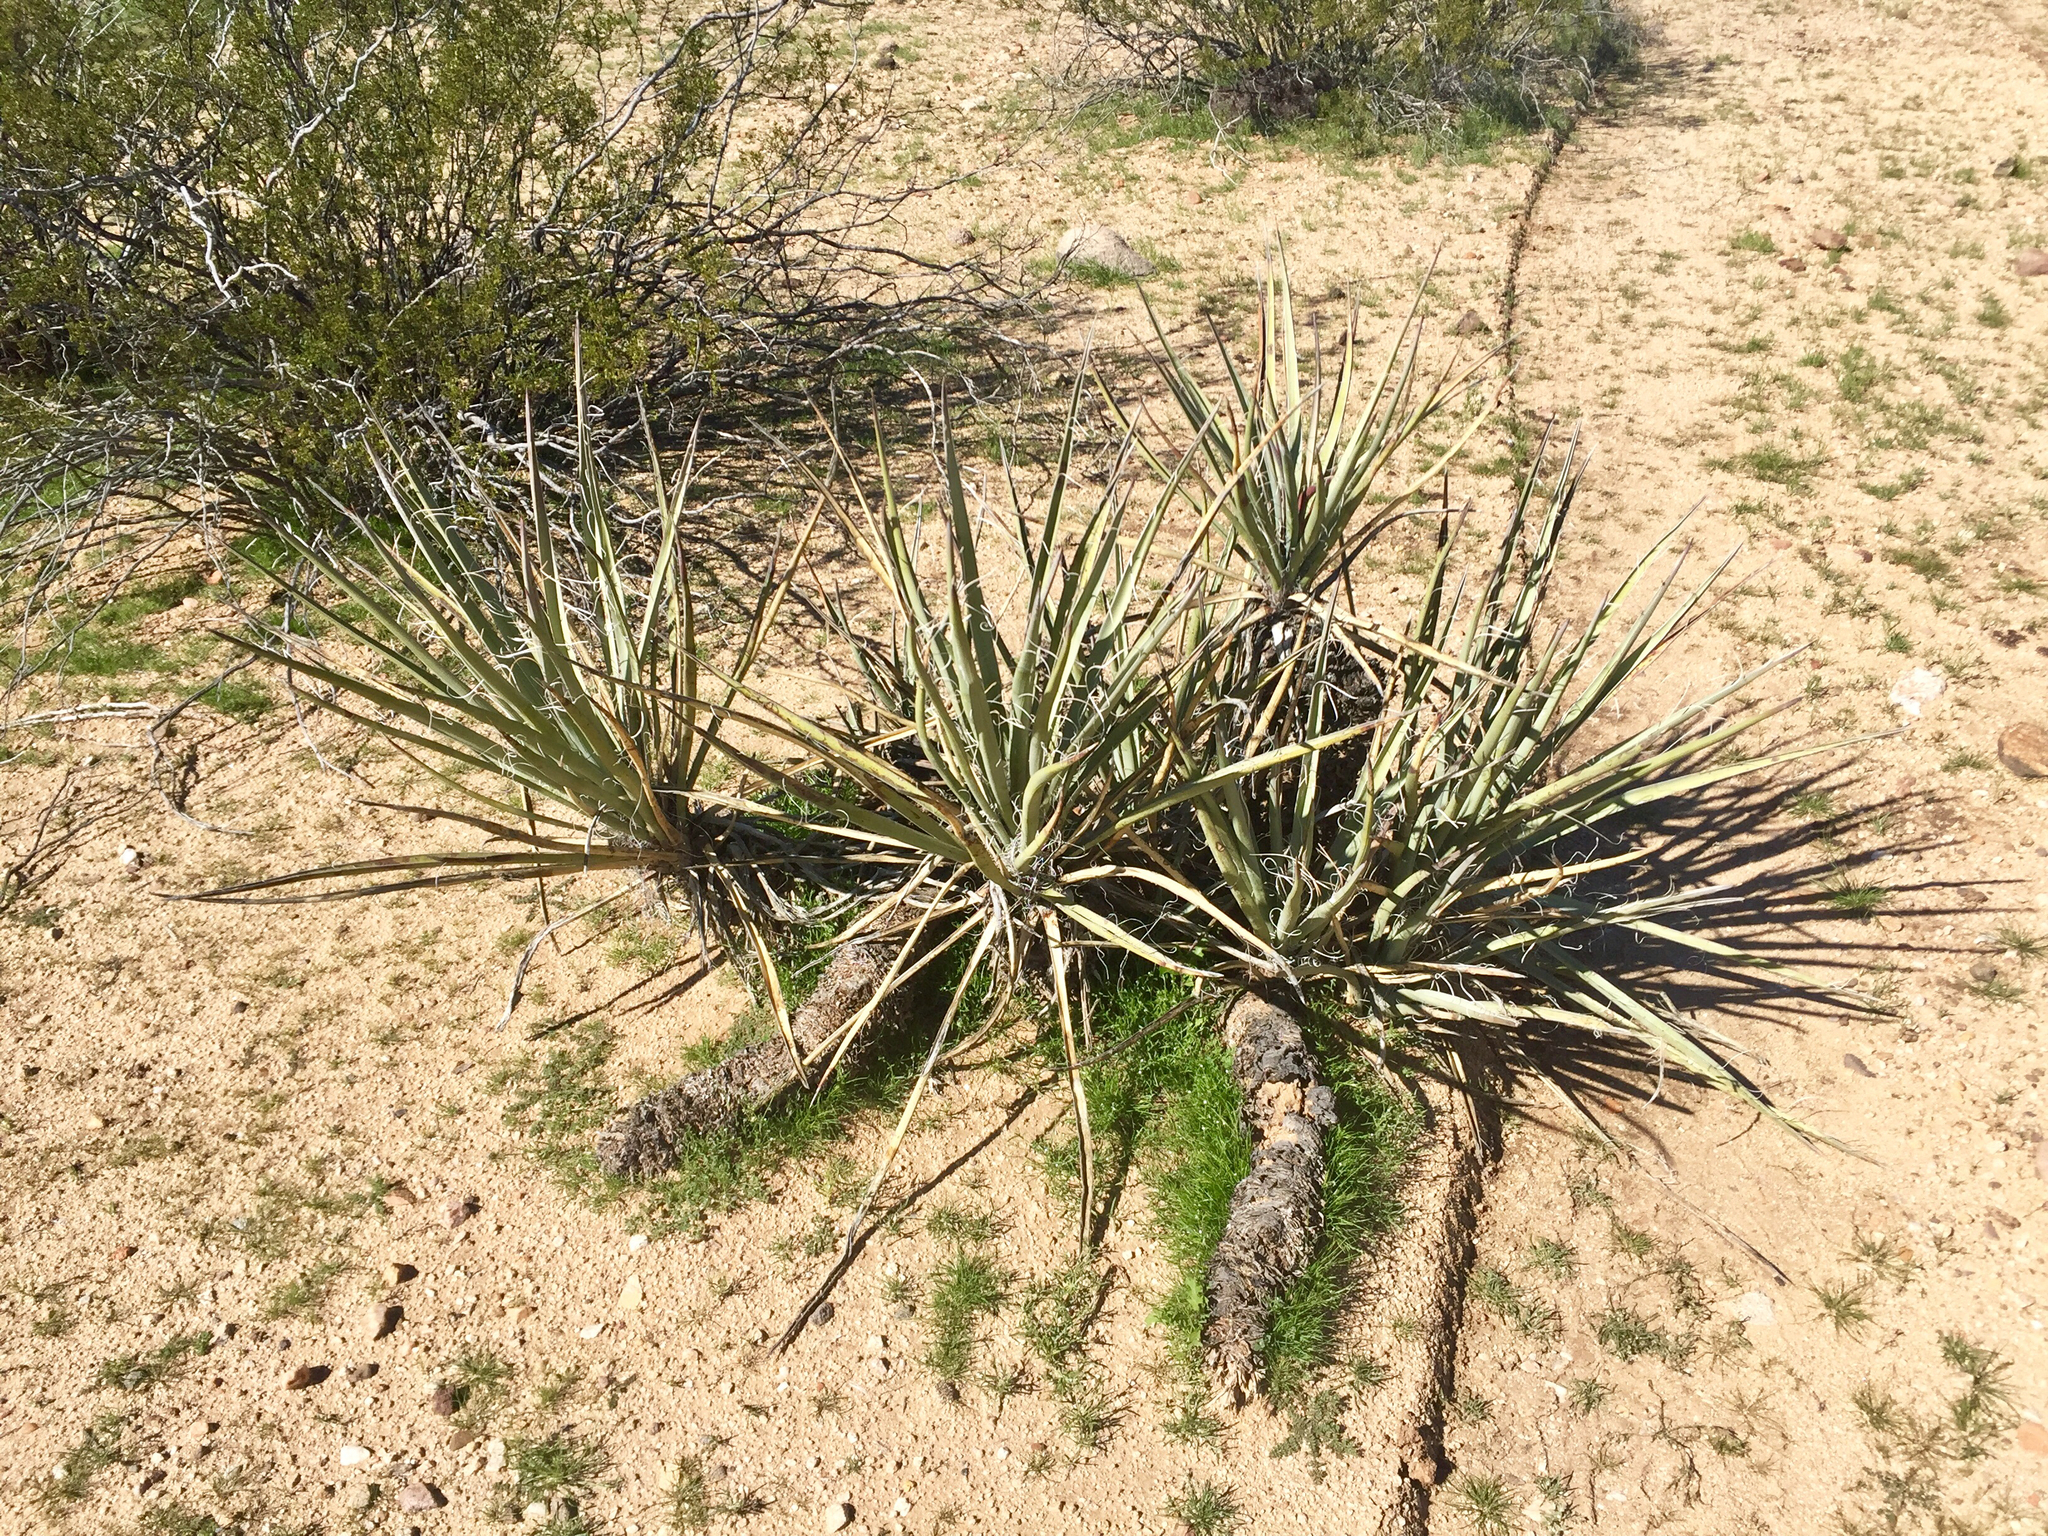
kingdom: Plantae
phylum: Tracheophyta
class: Liliopsida
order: Asparagales
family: Asparagaceae
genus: Yucca
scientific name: Yucca baccata
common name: Banana yucca
